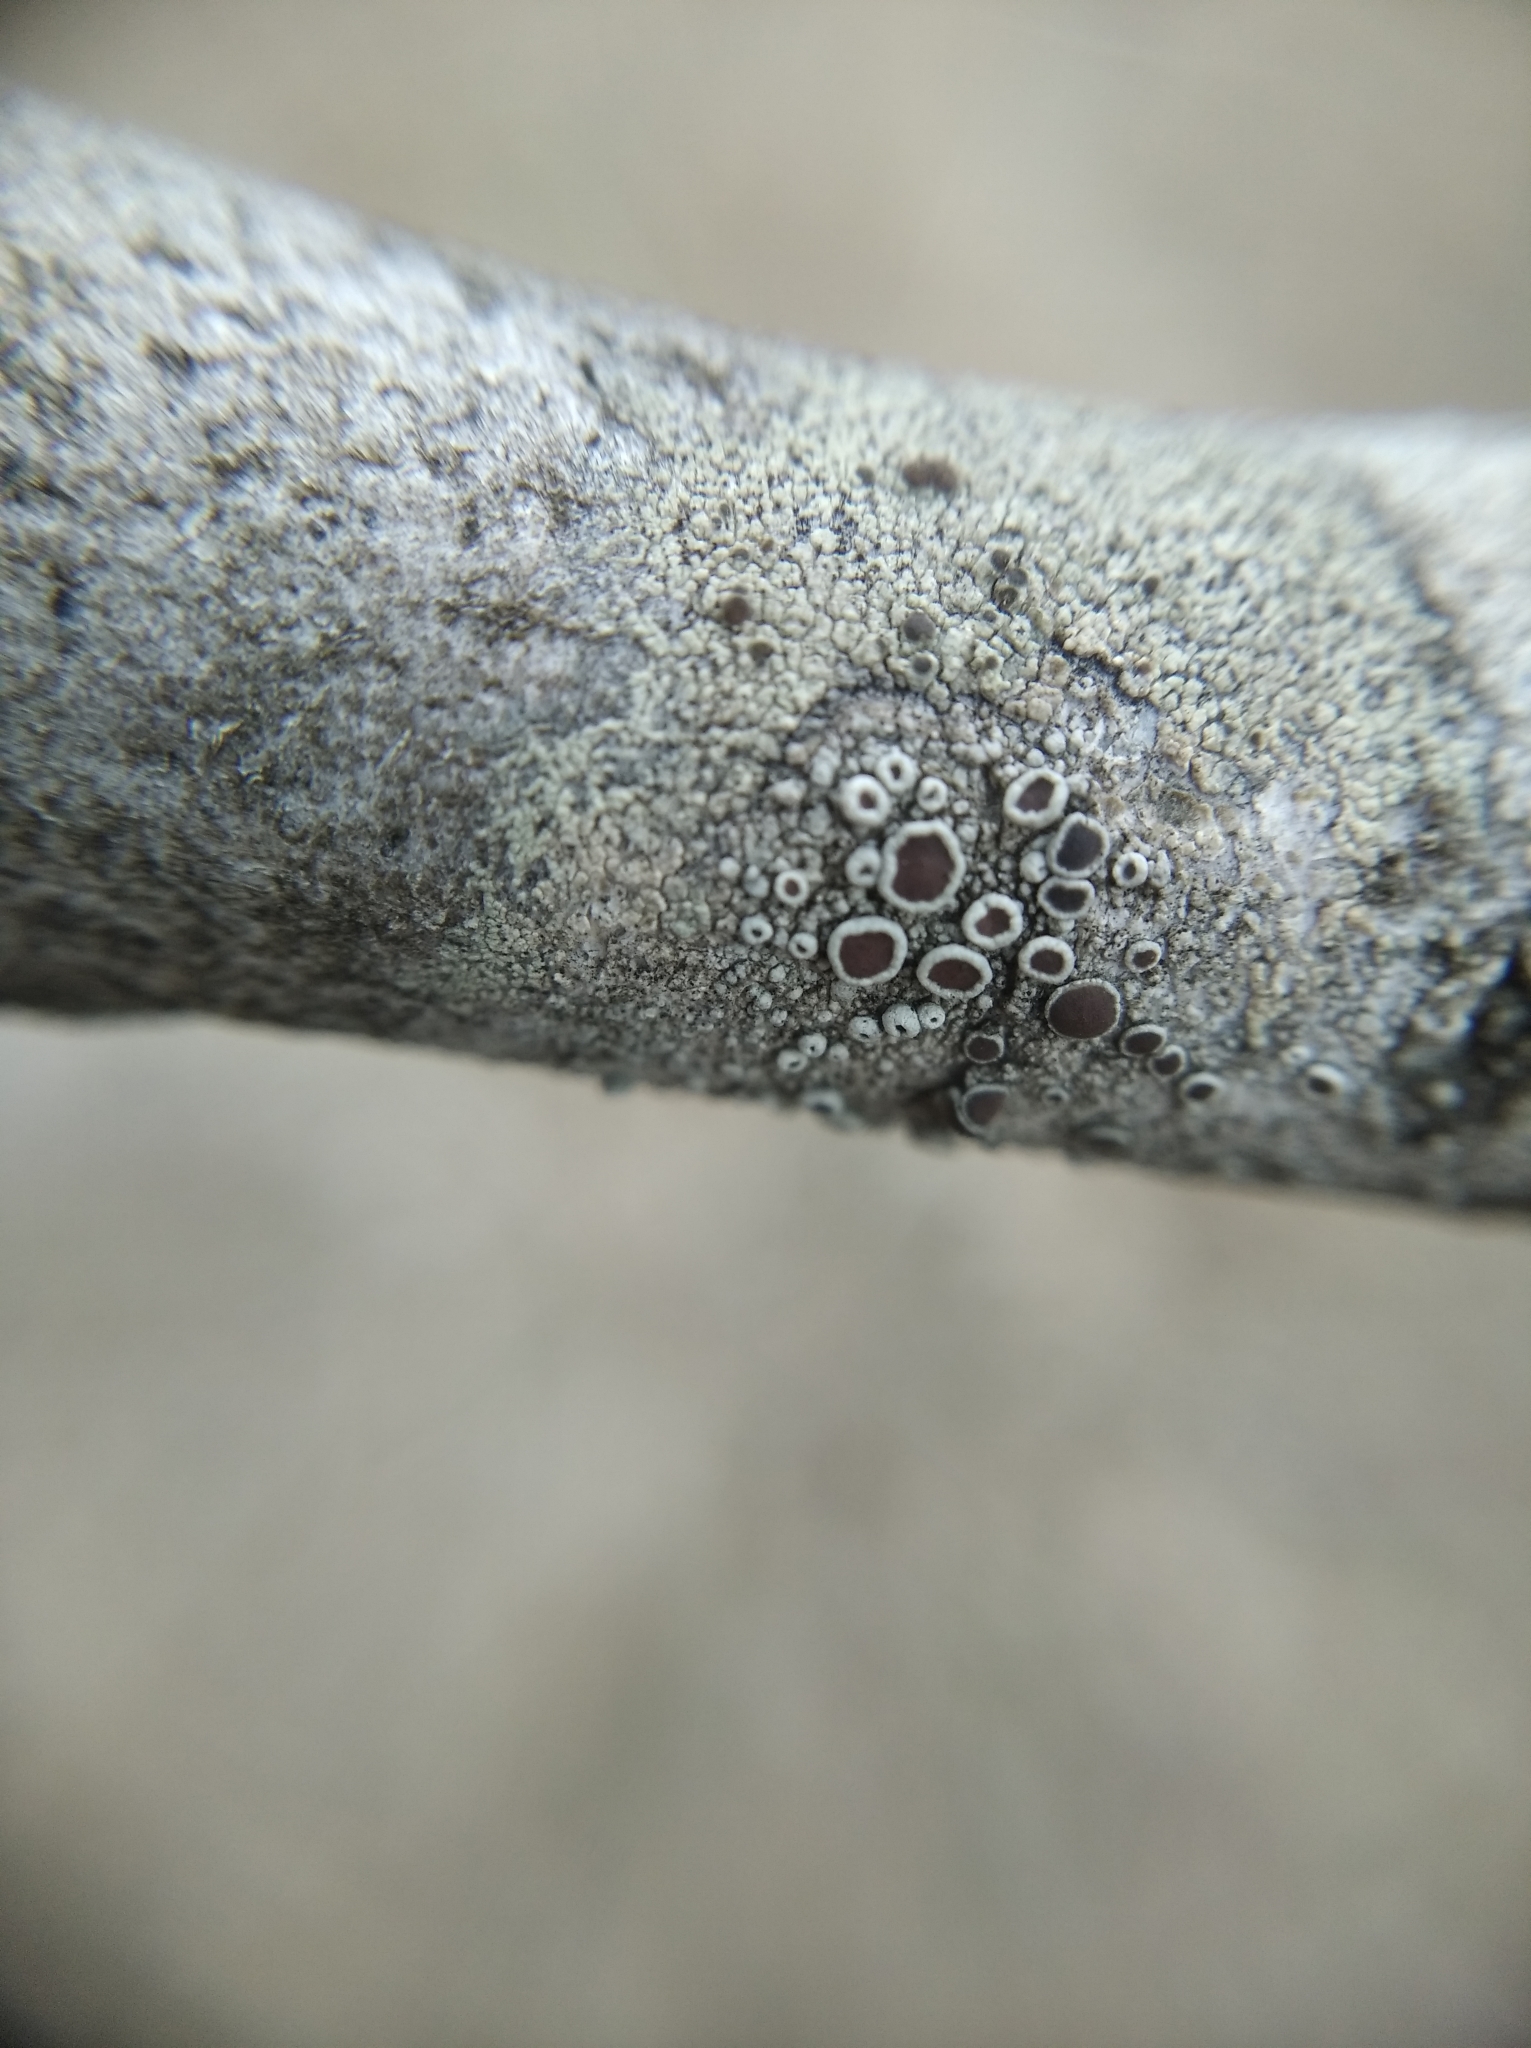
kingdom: Fungi
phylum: Ascomycota
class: Lecanoromycetes
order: Lecanorales
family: Lecanoraceae
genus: Lecanora
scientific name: Lecanora pulicaris
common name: Common rim lichen
